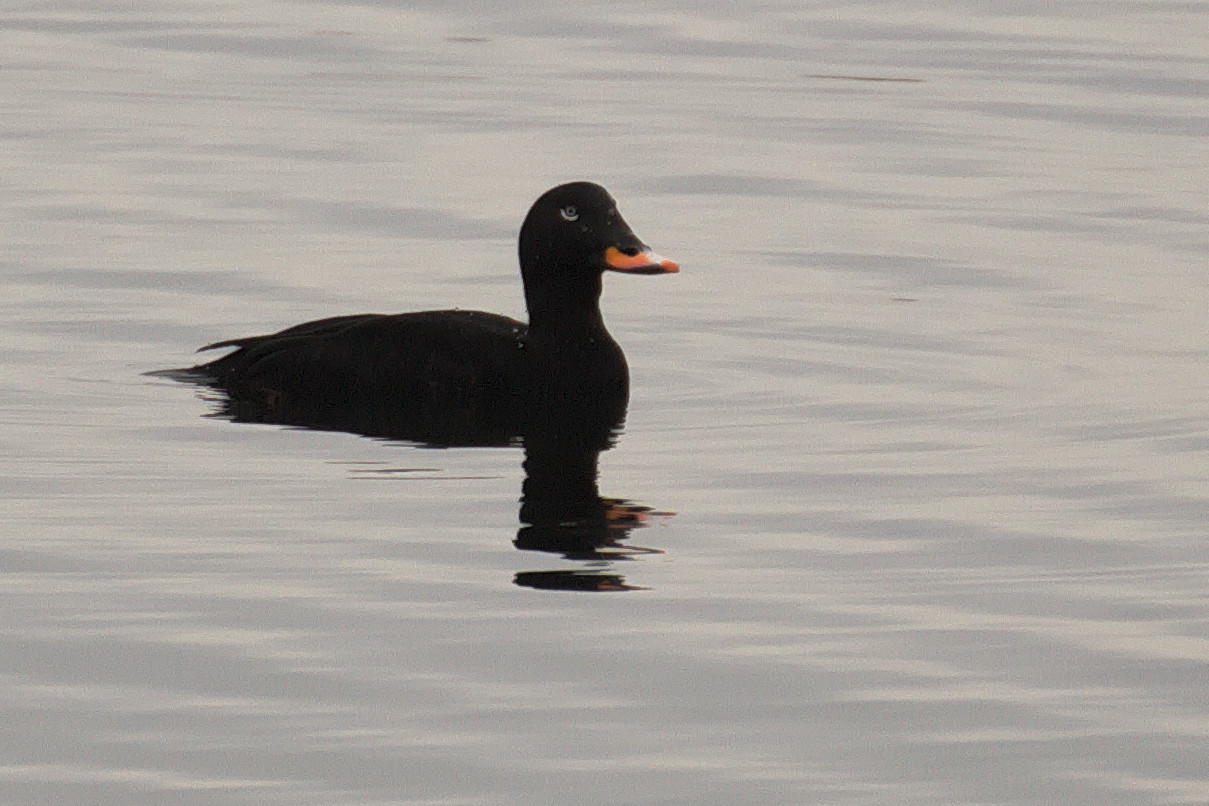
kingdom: Animalia
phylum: Chordata
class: Aves
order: Anseriformes
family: Anatidae
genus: Melanitta
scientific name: Melanitta fusca
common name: Velvet scoter
